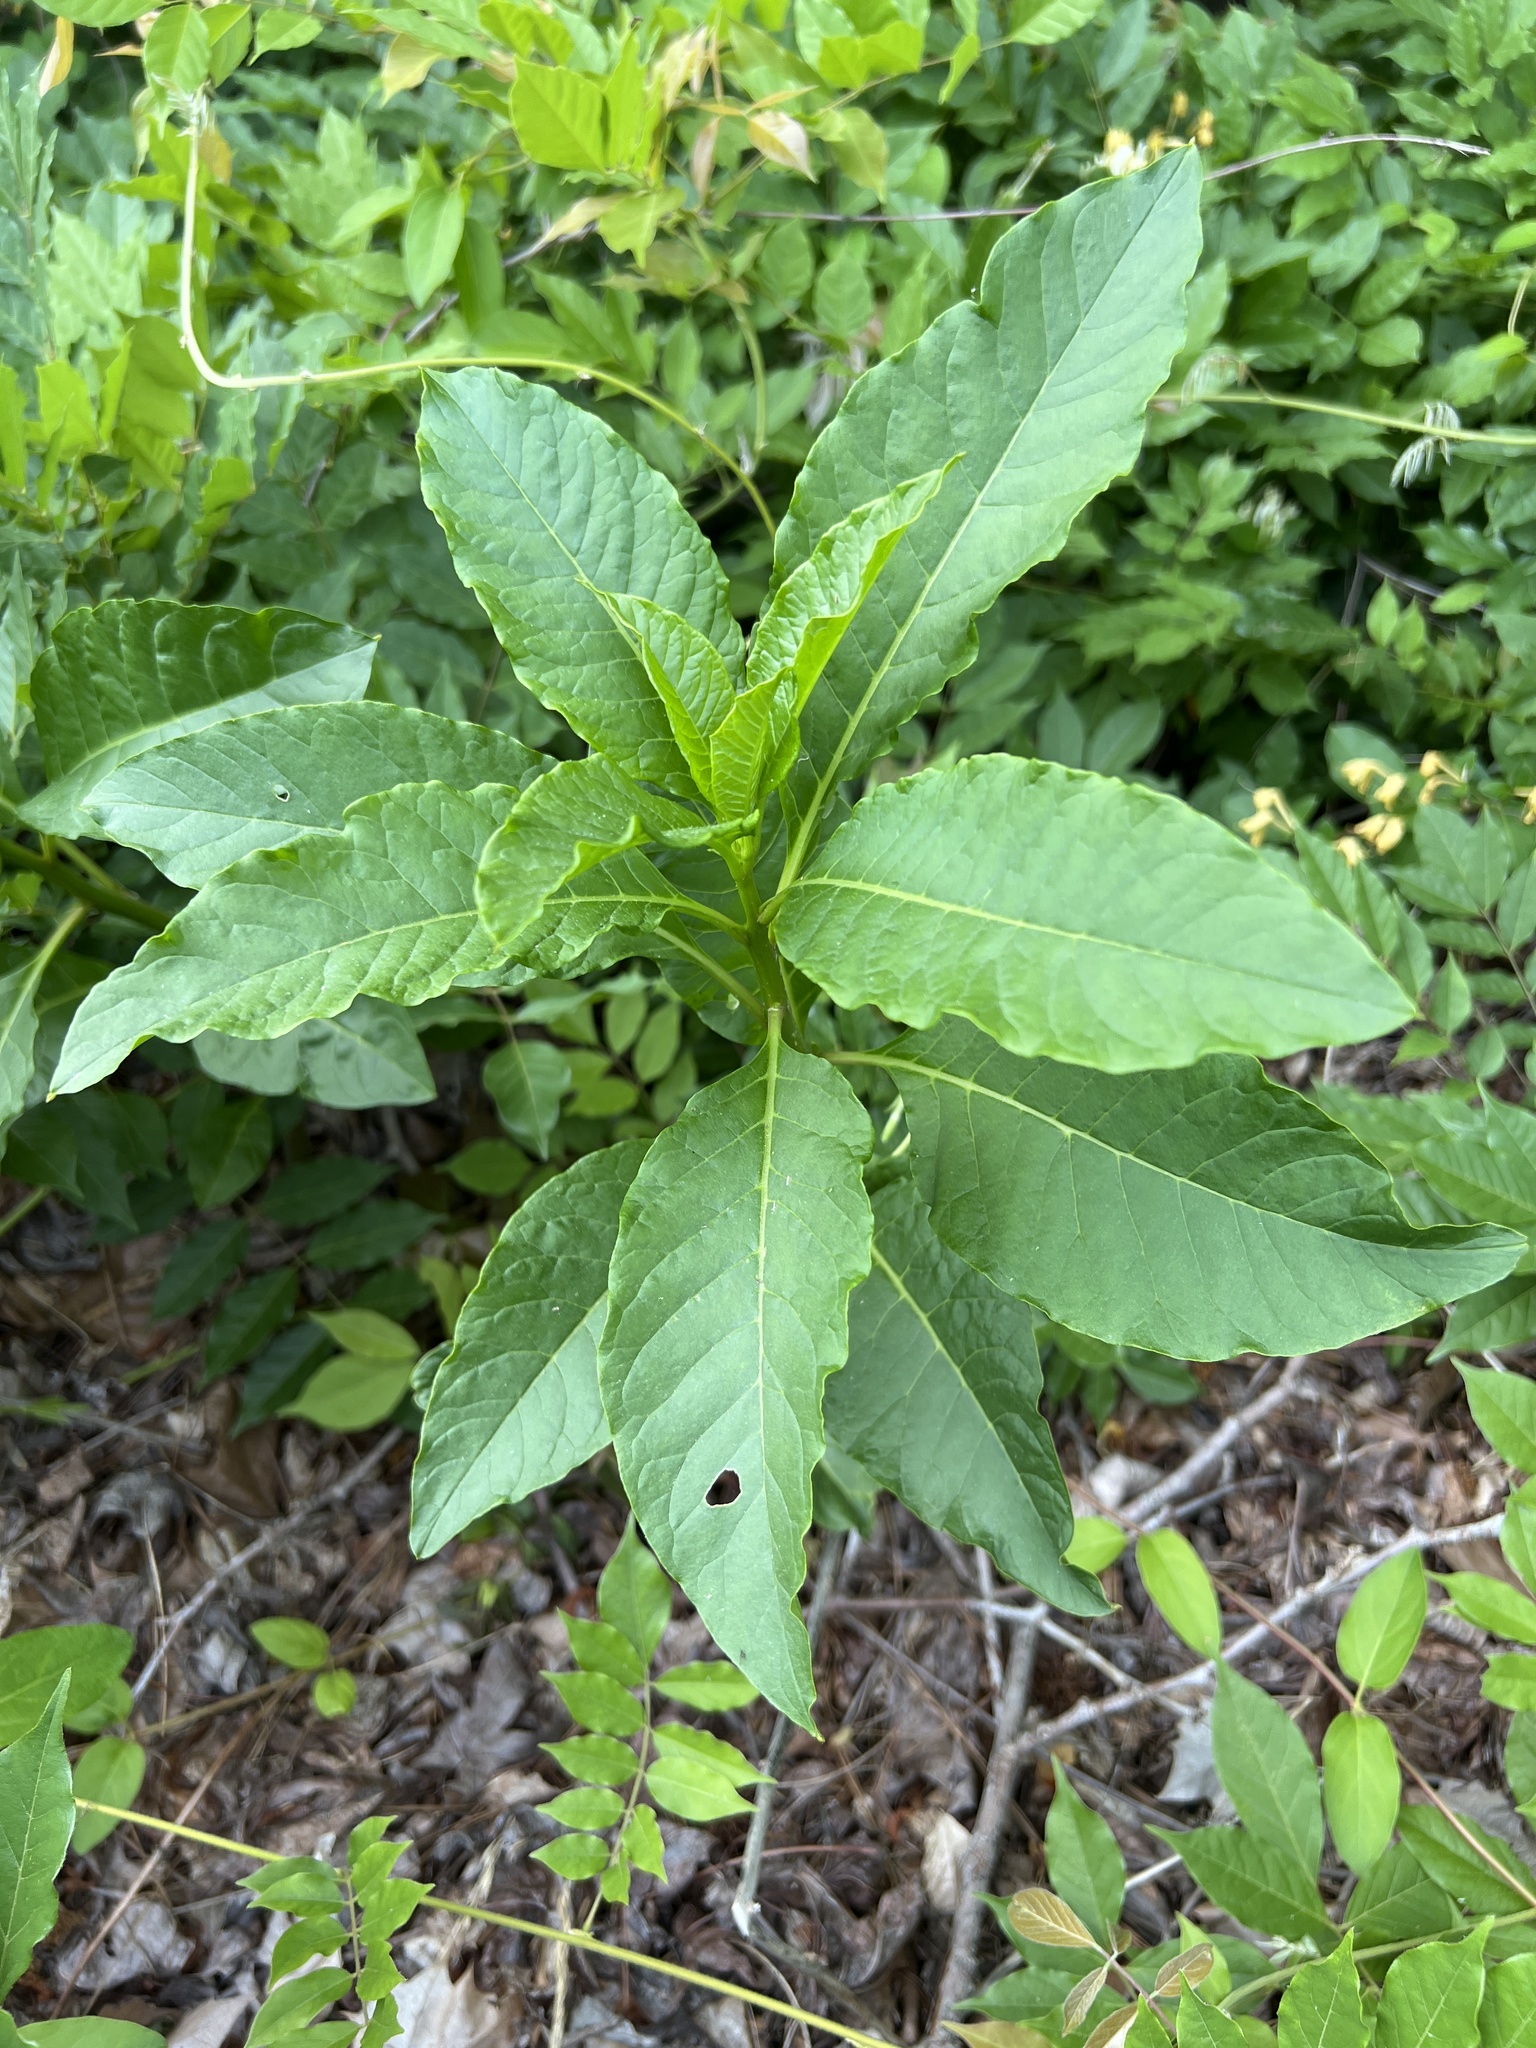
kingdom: Plantae
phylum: Tracheophyta
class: Magnoliopsida
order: Caryophyllales
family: Phytolaccaceae
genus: Phytolacca
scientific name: Phytolacca americana
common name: American pokeweed
